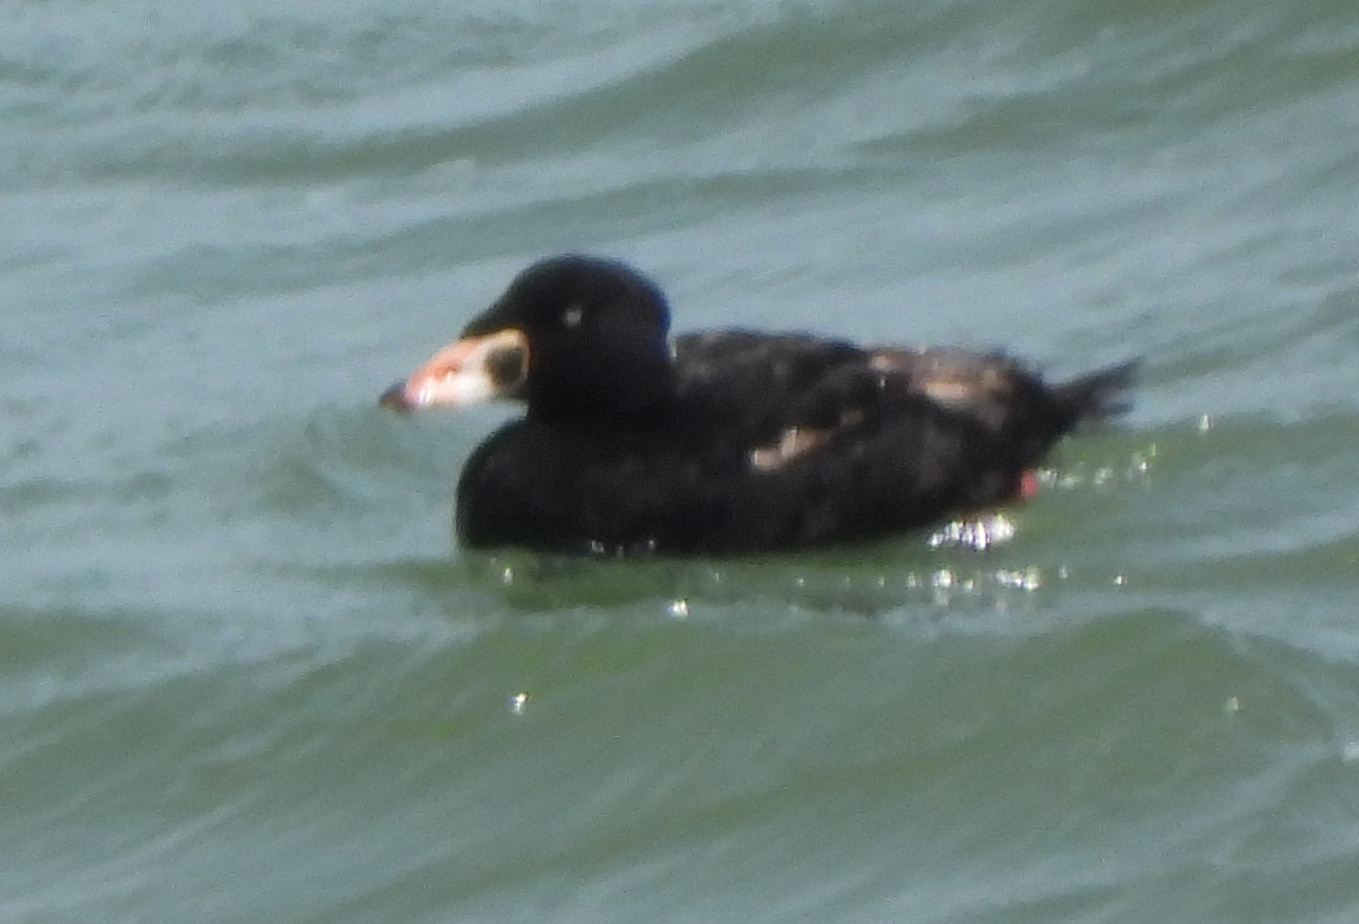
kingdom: Animalia
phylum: Chordata
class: Aves
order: Anseriformes
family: Anatidae
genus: Melanitta
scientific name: Melanitta perspicillata
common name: Surf scoter
